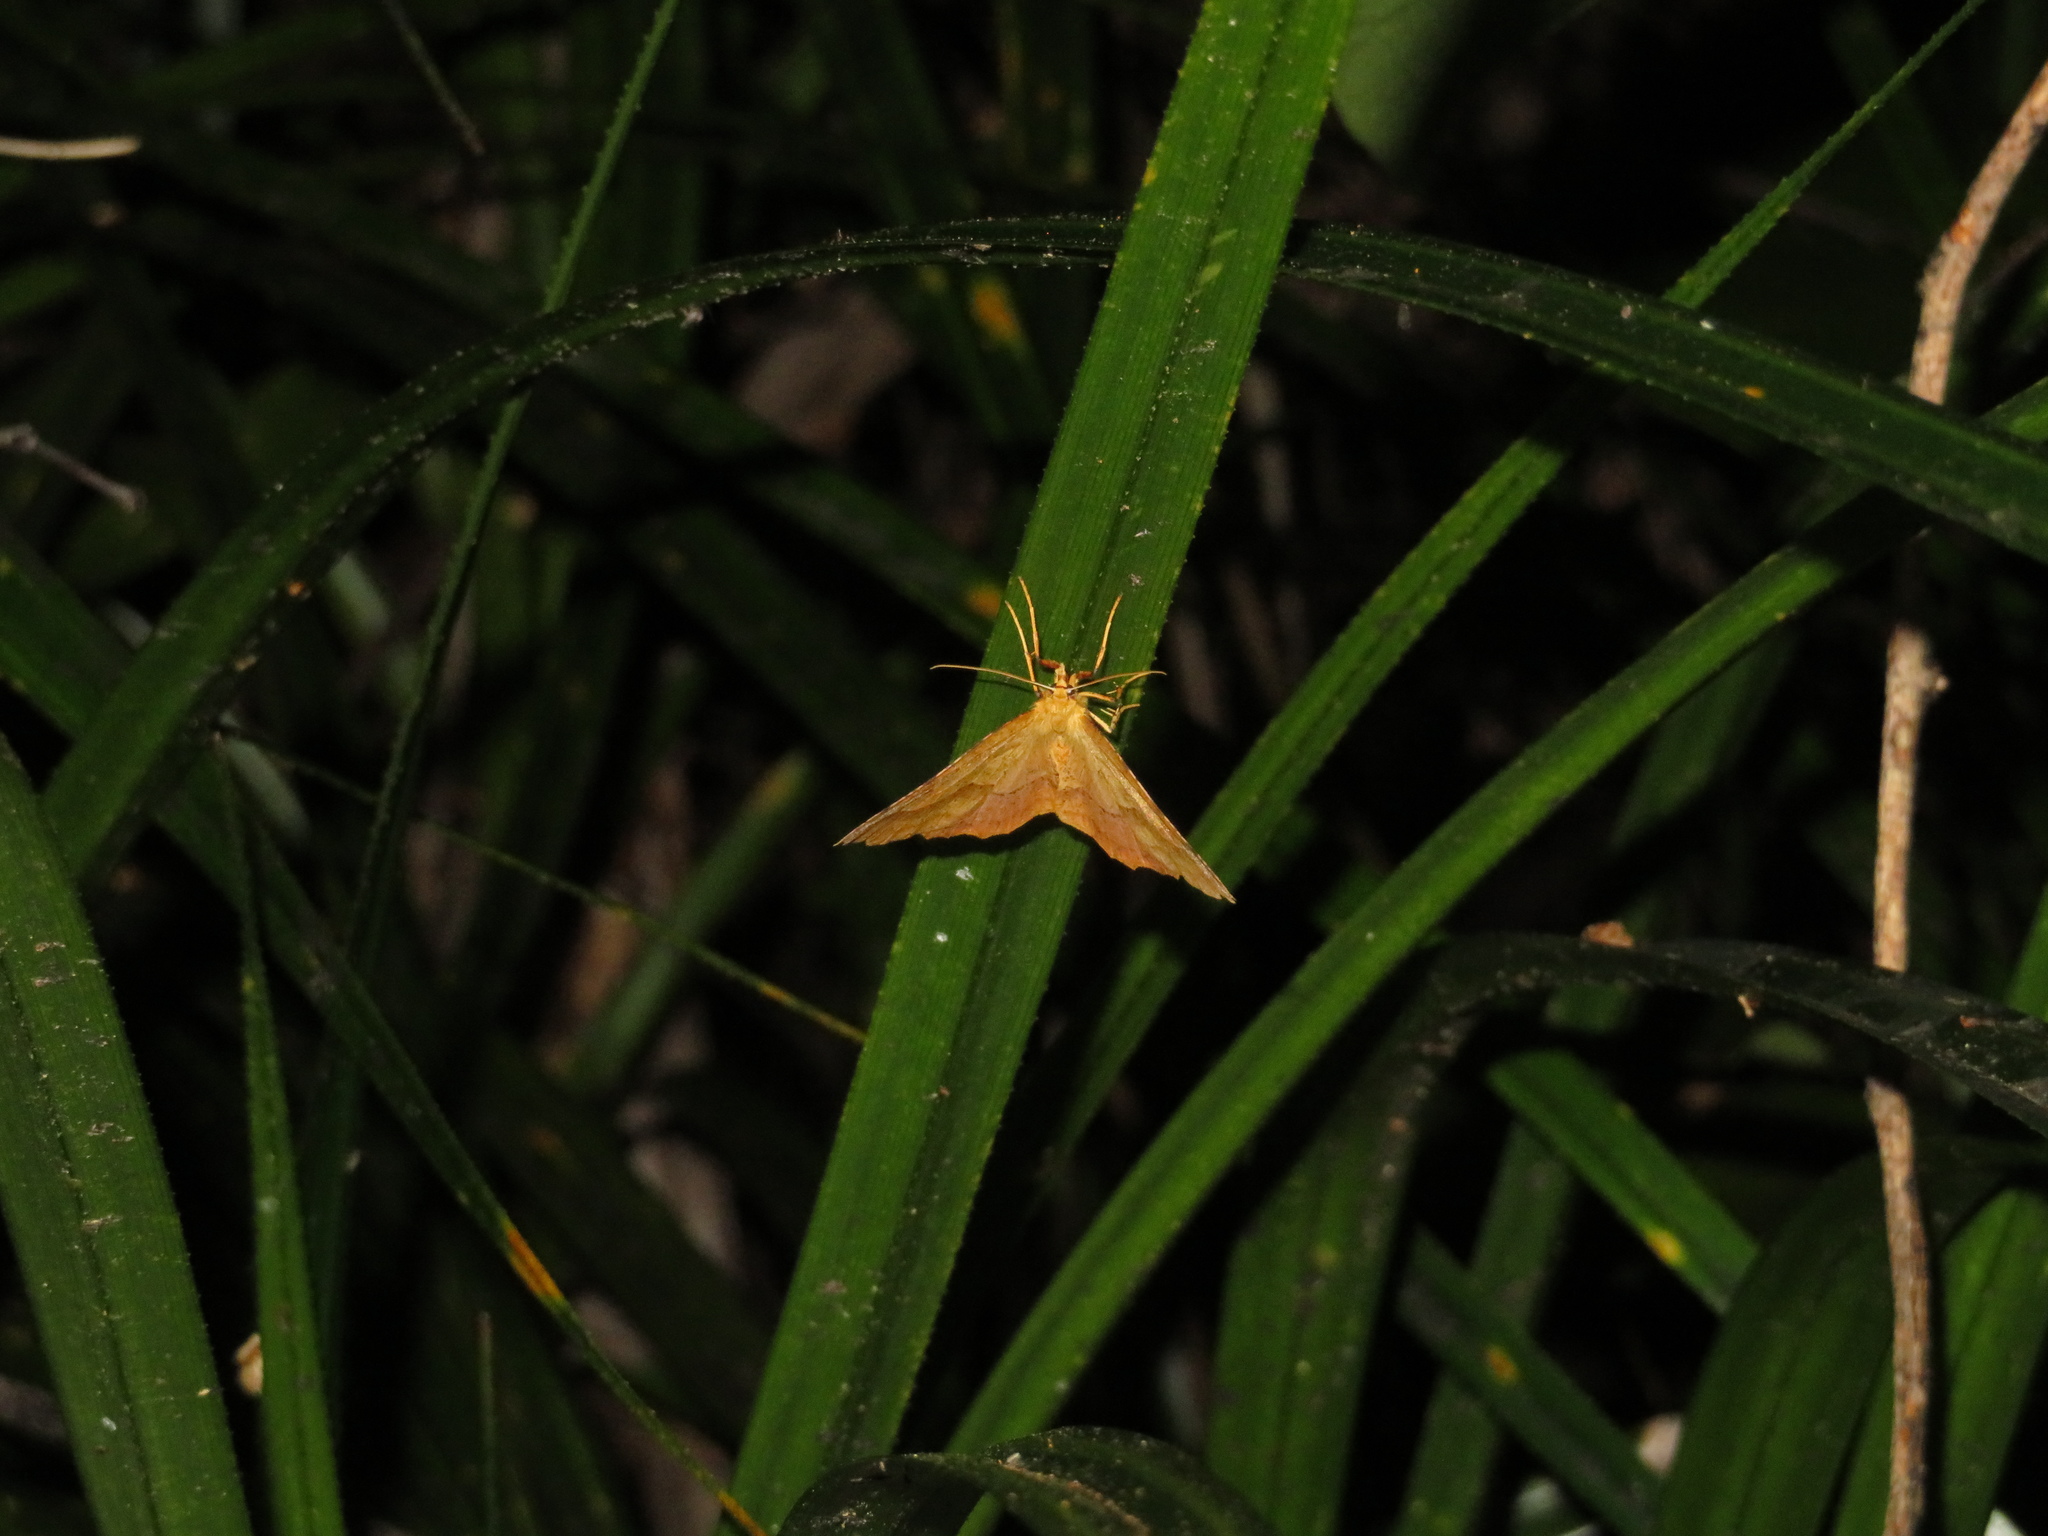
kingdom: Animalia
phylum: Arthropoda
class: Insecta
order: Lepidoptera
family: Geometridae
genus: Ischalis
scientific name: Ischalis variabilis
